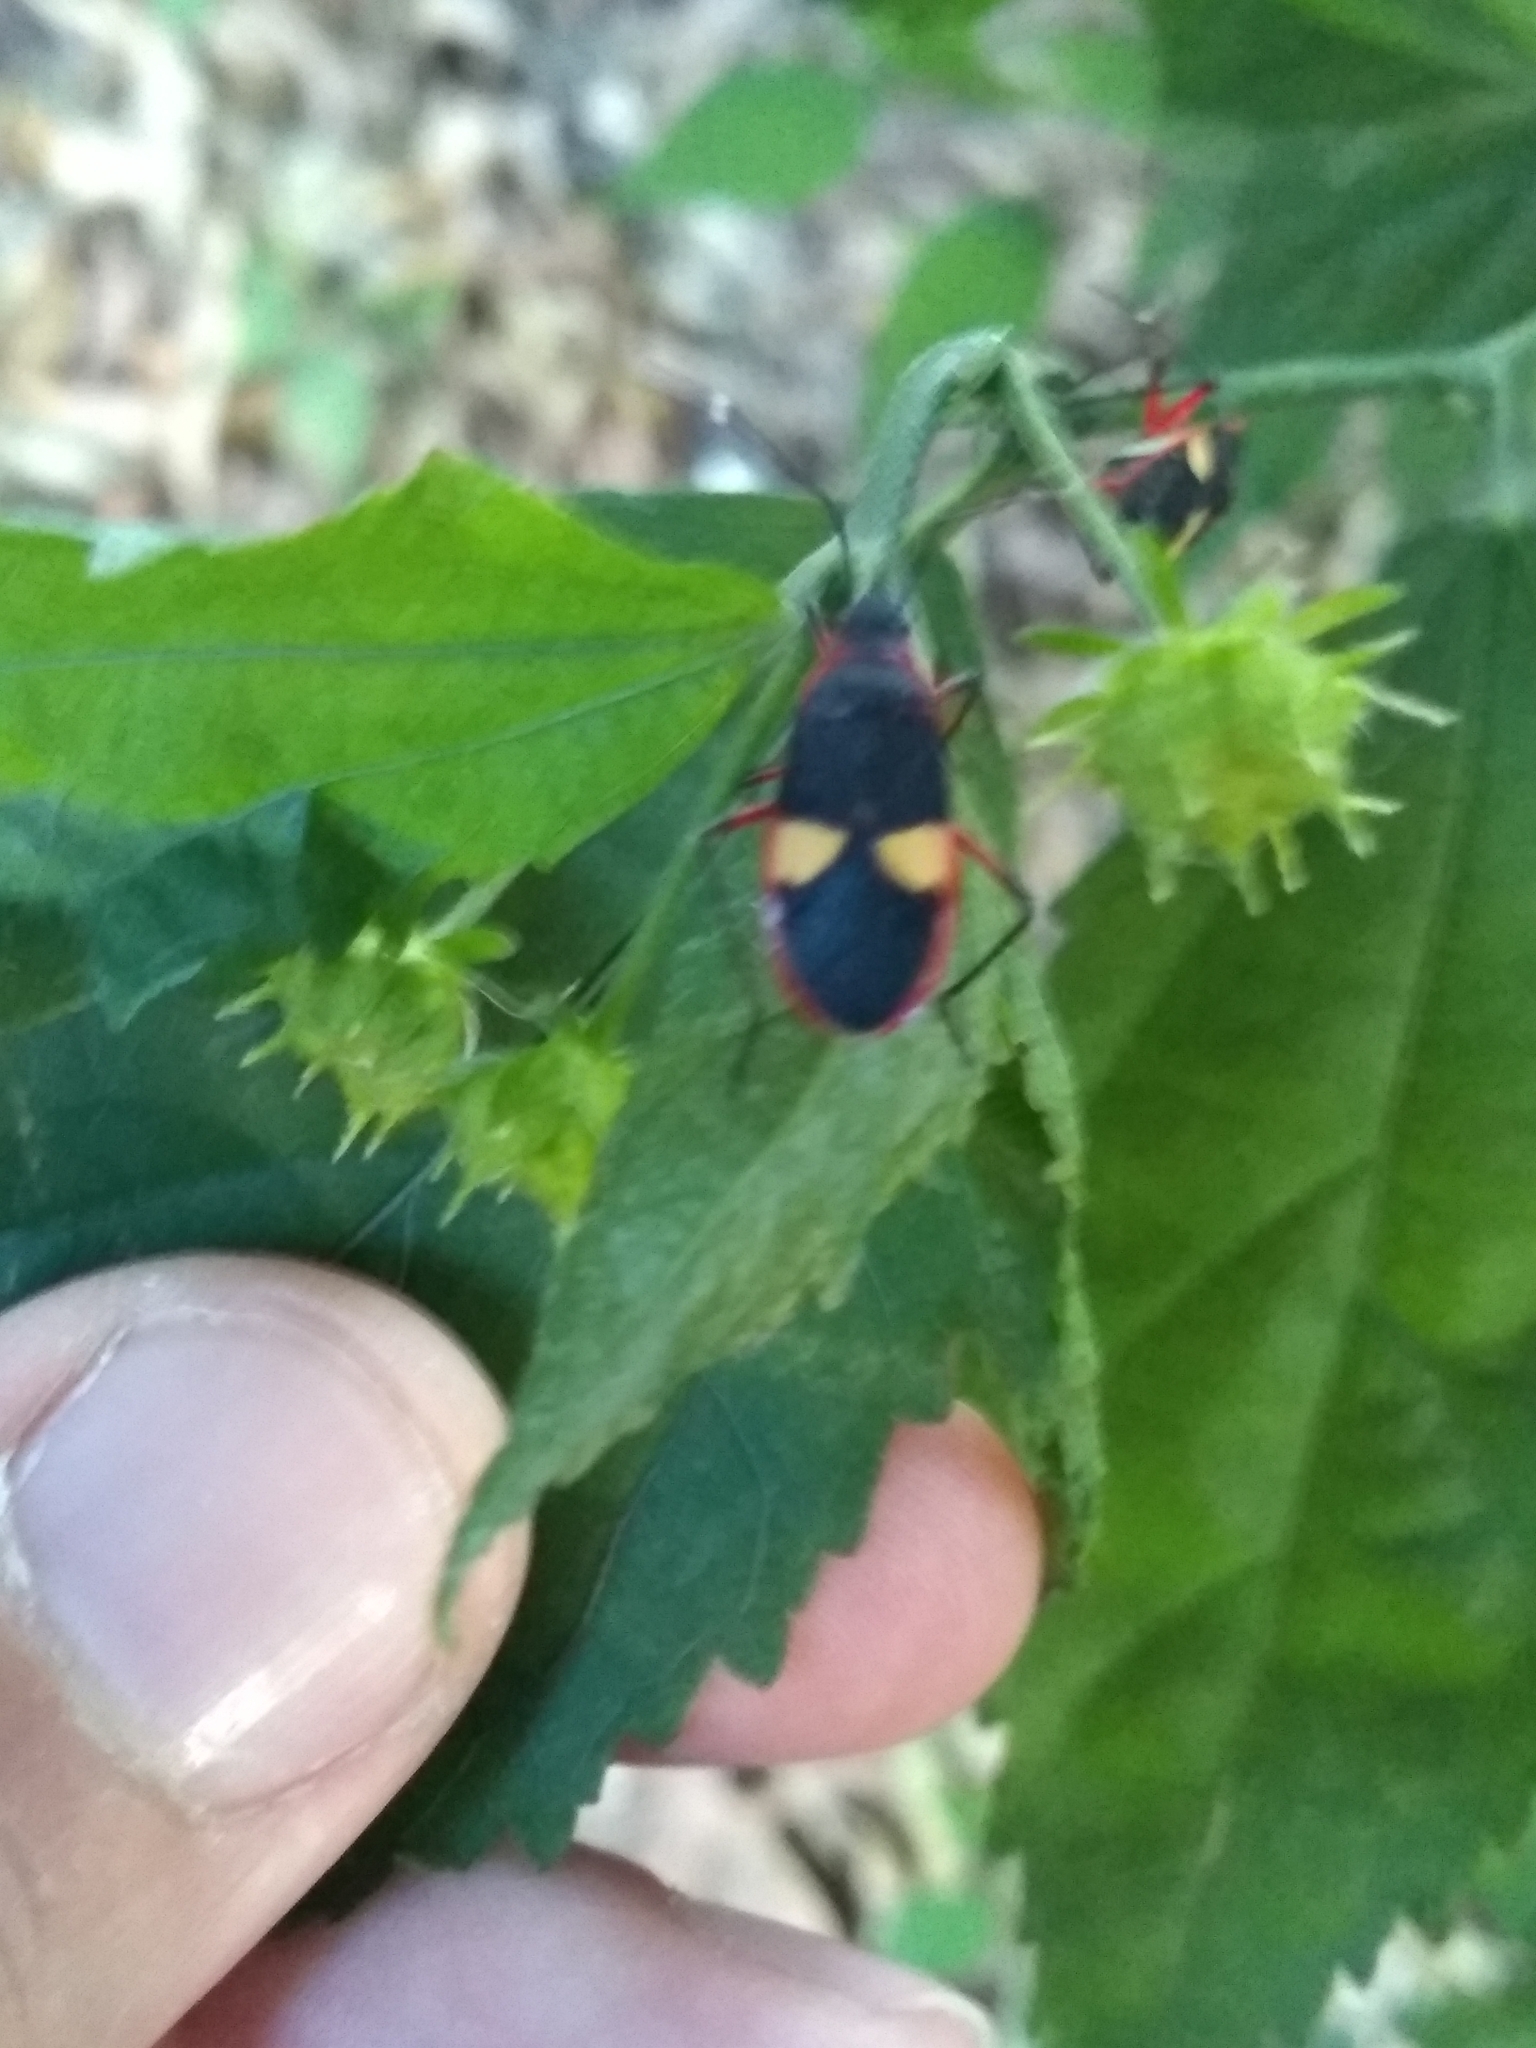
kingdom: Animalia
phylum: Arthropoda
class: Insecta
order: Hemiptera
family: Pyrrhocoridae
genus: Dysdercus
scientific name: Dysdercus albofasciatus
